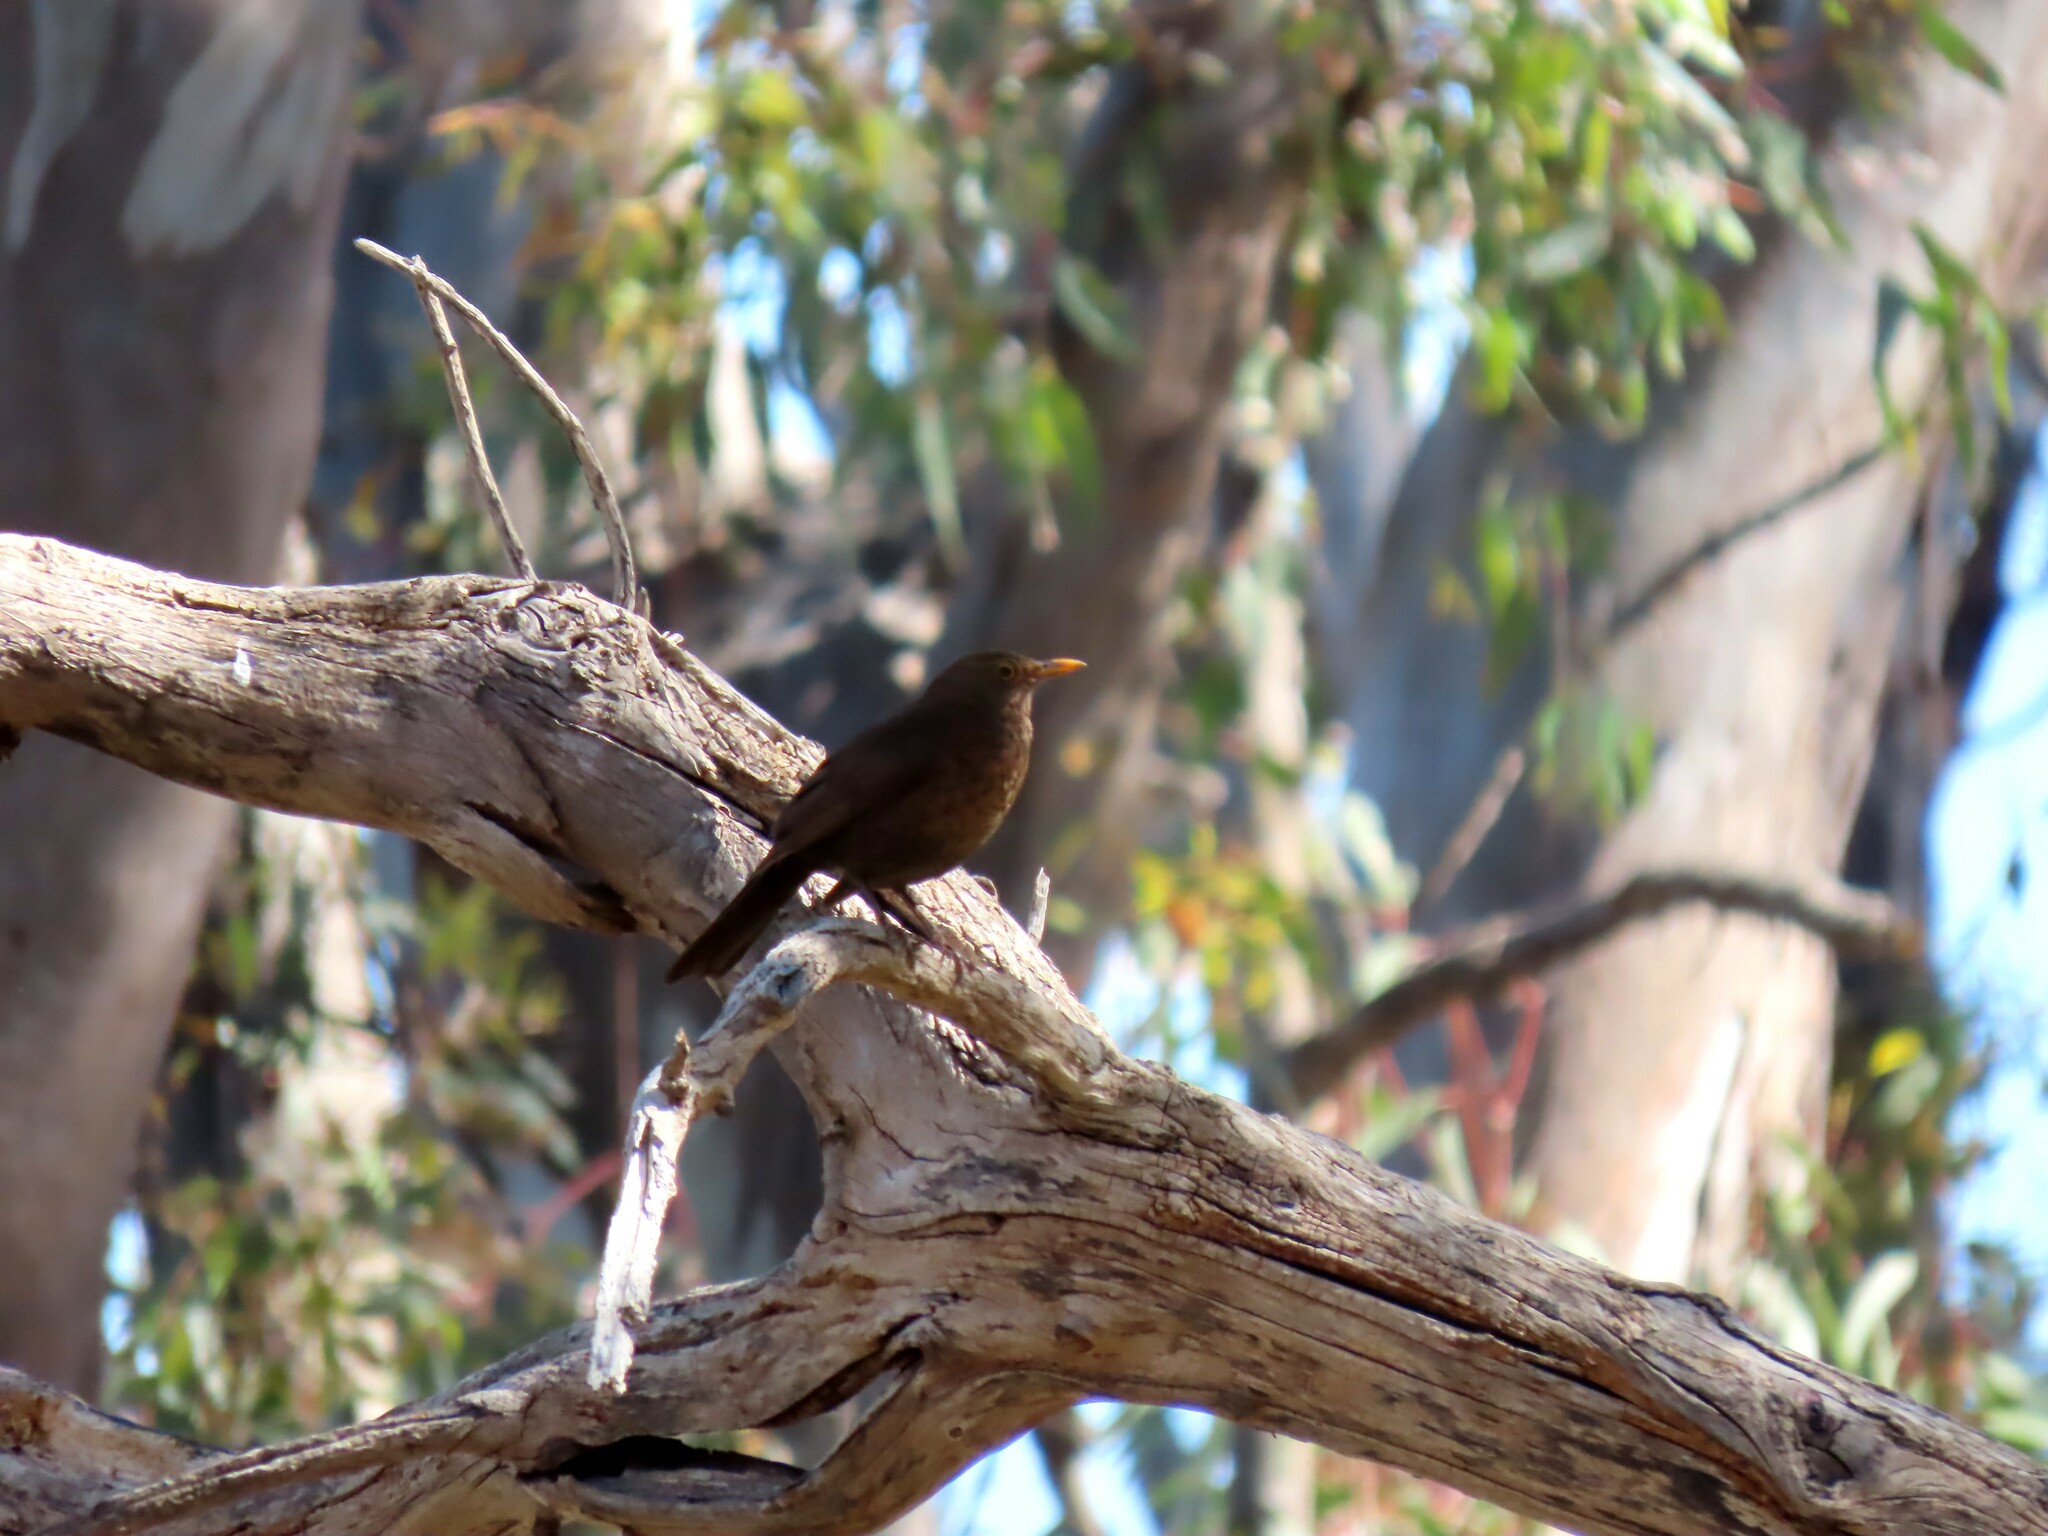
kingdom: Animalia
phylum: Chordata
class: Aves
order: Passeriformes
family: Turdidae
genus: Turdus
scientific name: Turdus merula
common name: Common blackbird
